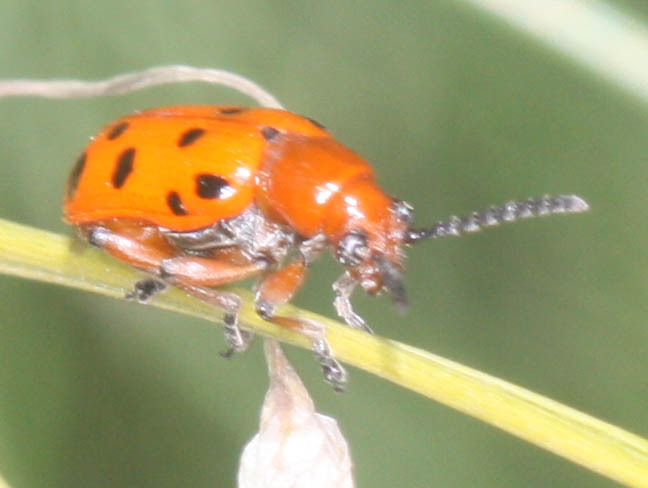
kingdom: Animalia
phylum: Arthropoda
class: Insecta
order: Coleoptera
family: Chrysomelidae
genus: Crioceris
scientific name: Crioceris duodecimpunctata
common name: Twelve-spotted asparagus beetle
